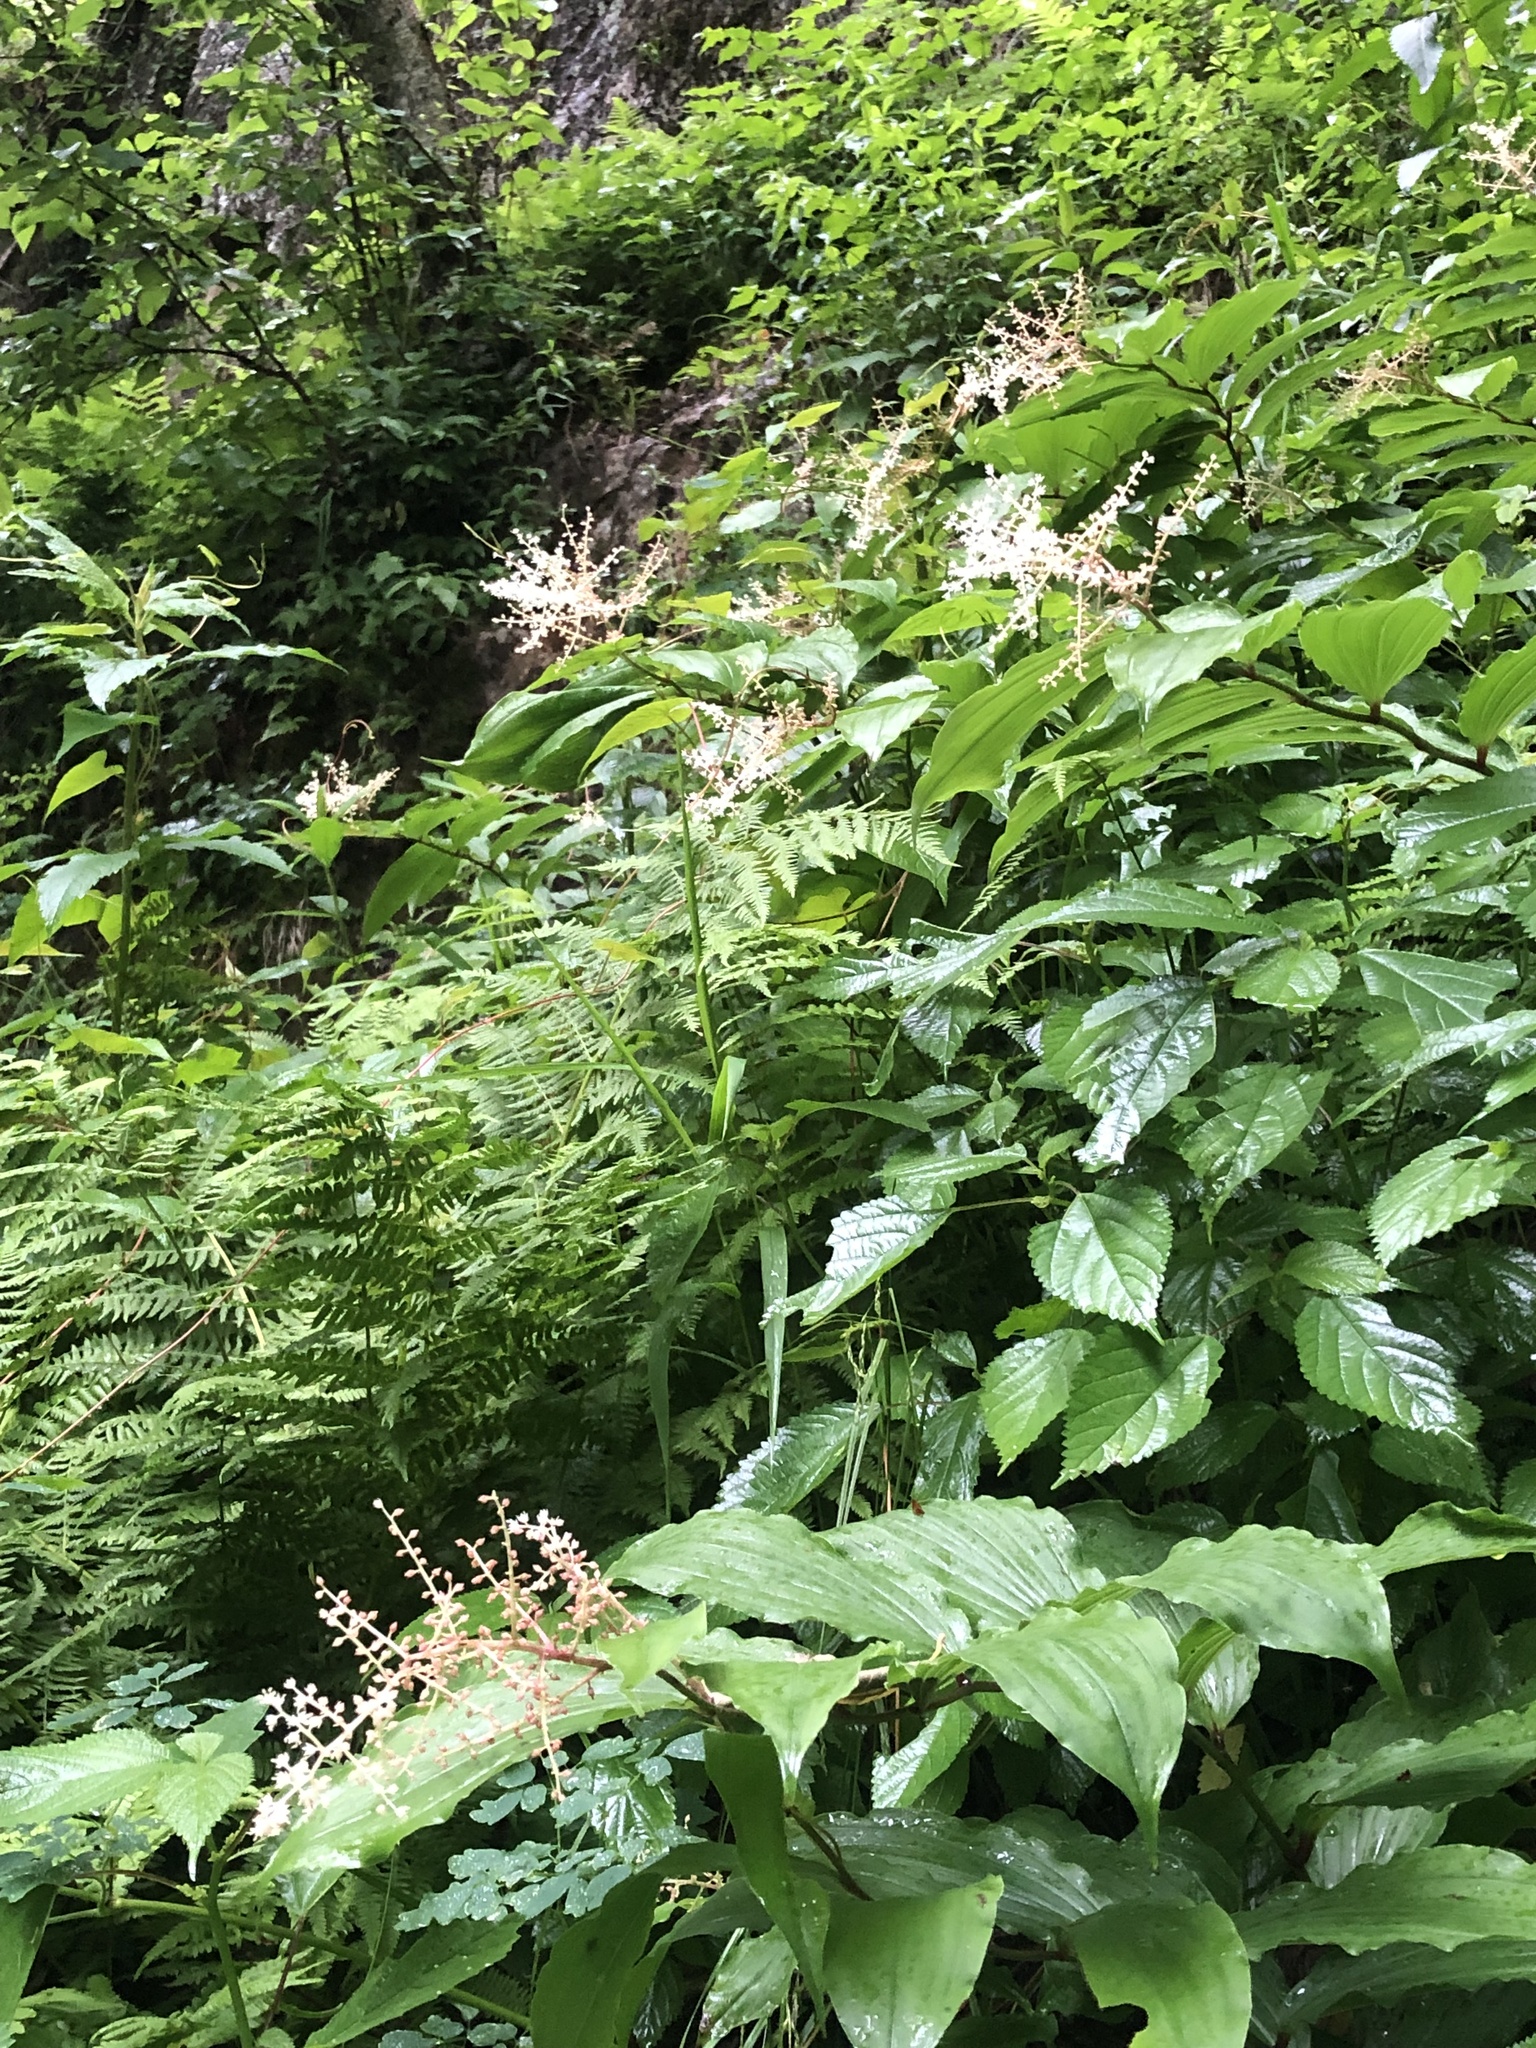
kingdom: Plantae
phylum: Tracheophyta
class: Liliopsida
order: Asparagales
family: Asparagaceae
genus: Maianthemum
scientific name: Maianthemum racemosum
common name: False spikenard
